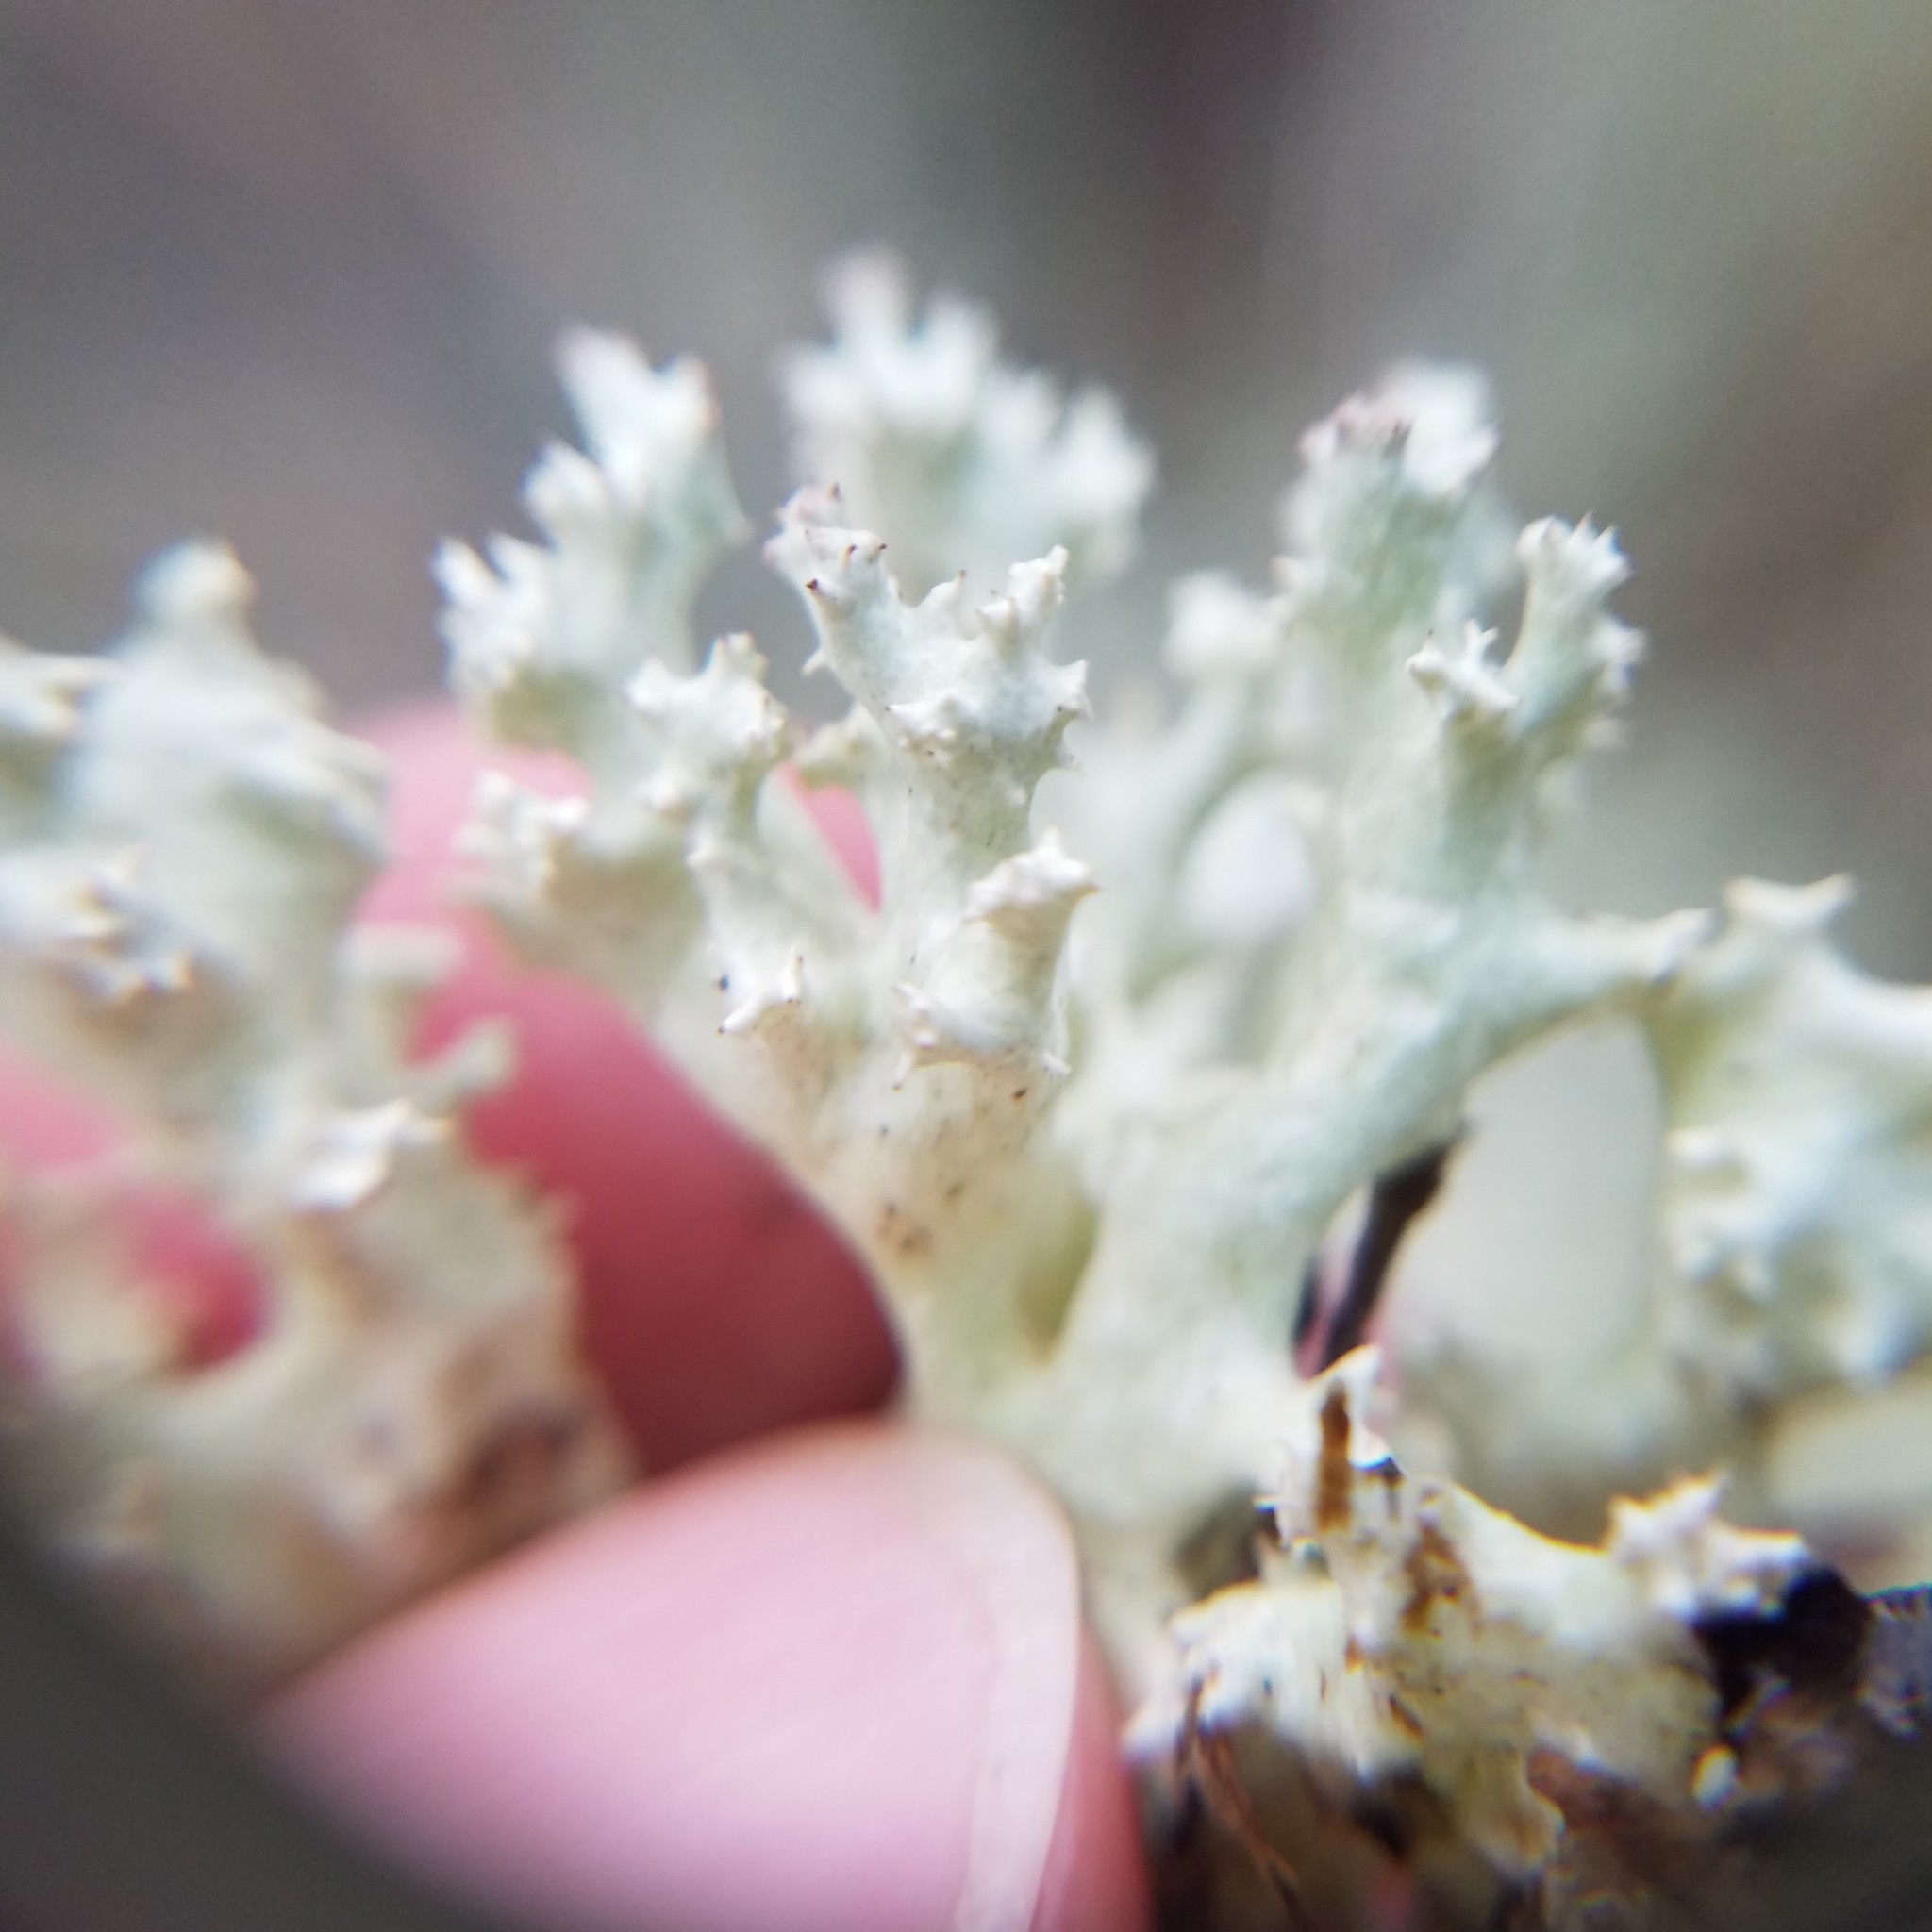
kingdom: Fungi
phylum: Ascomycota
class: Lecanoromycetes
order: Lecanorales
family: Cladoniaceae
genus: Cladonia
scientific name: Cladonia caroliniana
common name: Granite thorn
